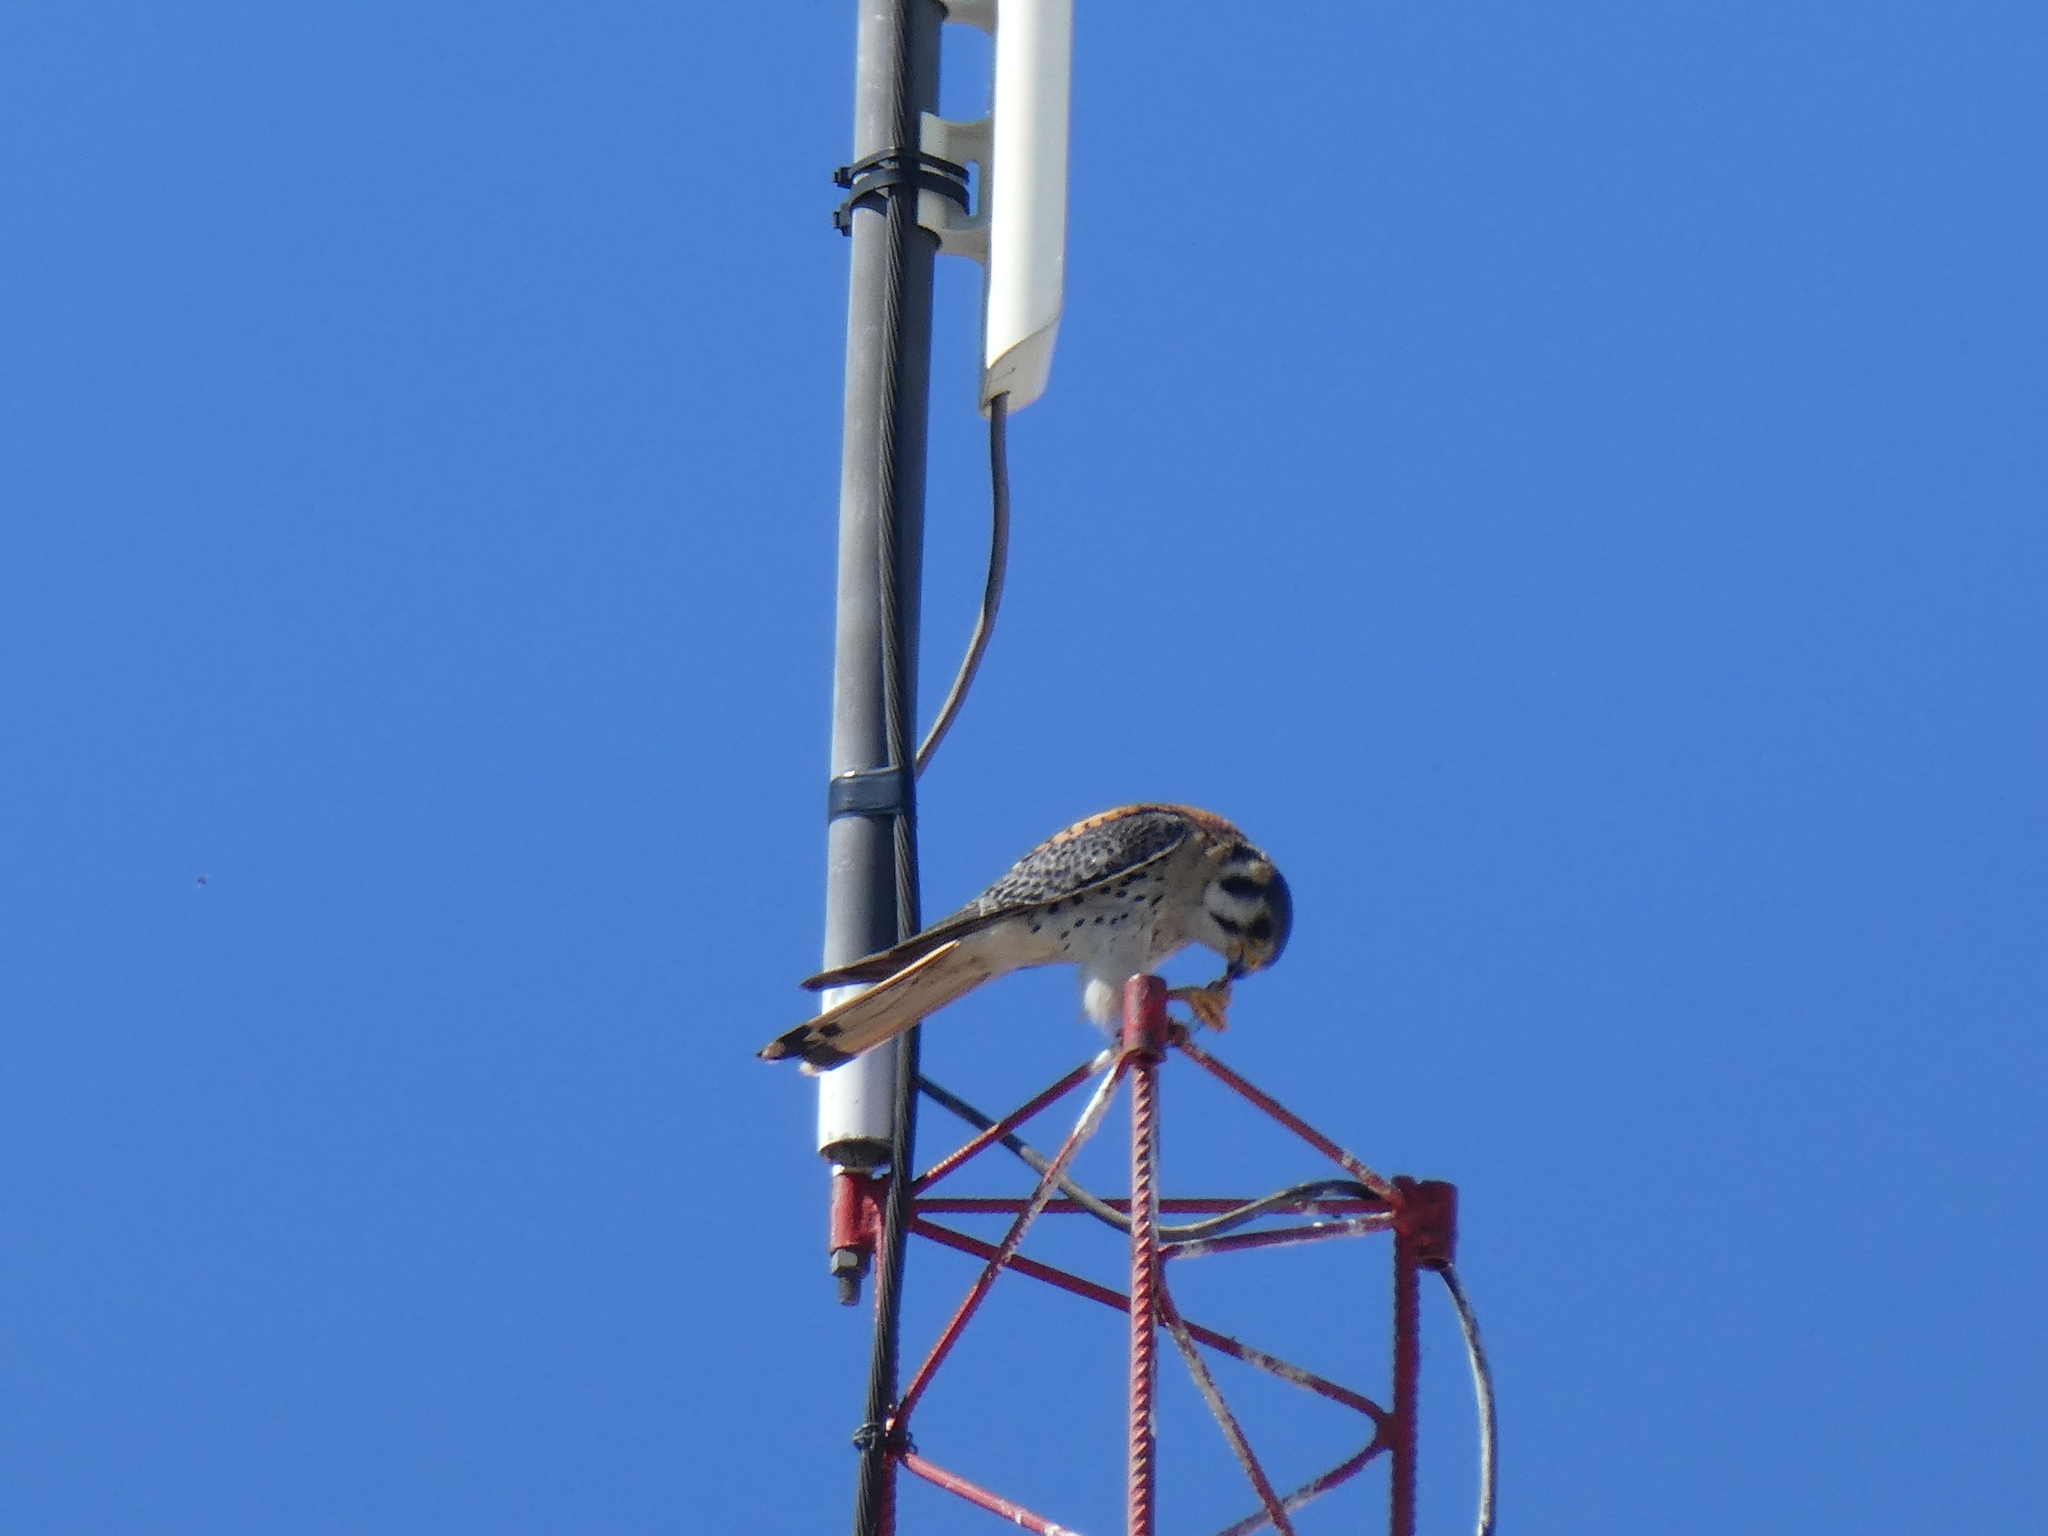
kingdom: Animalia
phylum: Chordata
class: Aves
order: Falconiformes
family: Falconidae
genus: Falco
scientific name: Falco sparverius
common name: American kestrel
